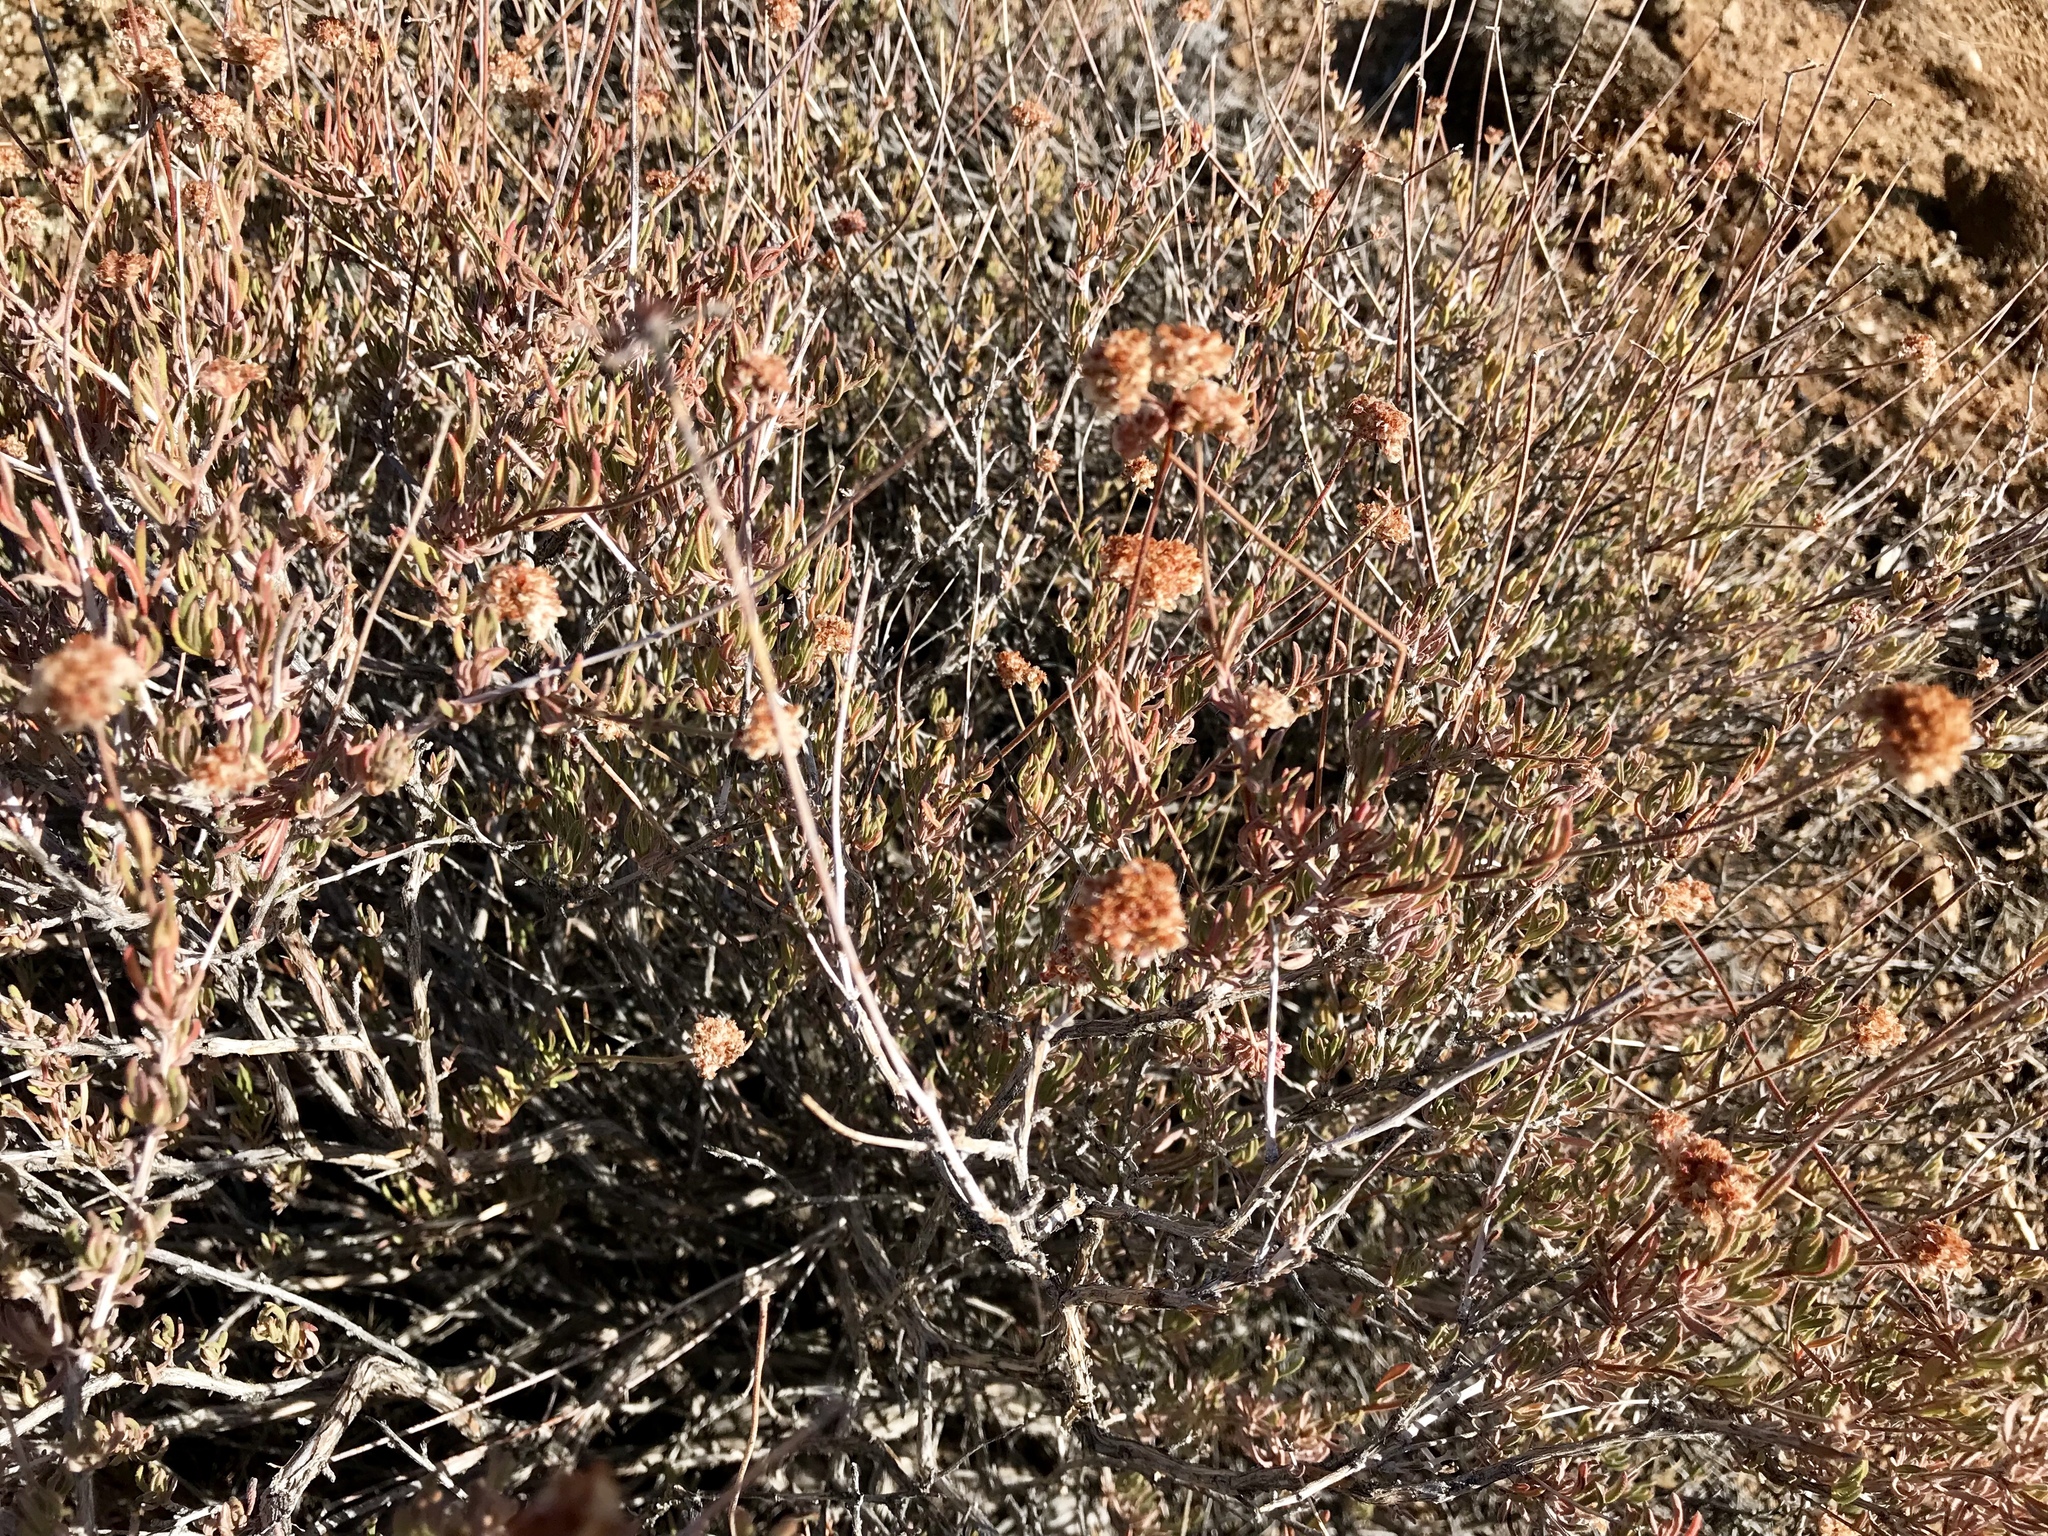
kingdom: Plantae
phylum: Tracheophyta
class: Magnoliopsida
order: Caryophyllales
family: Polygonaceae
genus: Eriogonum
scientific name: Eriogonum fasciculatum
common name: California wild buckwheat
